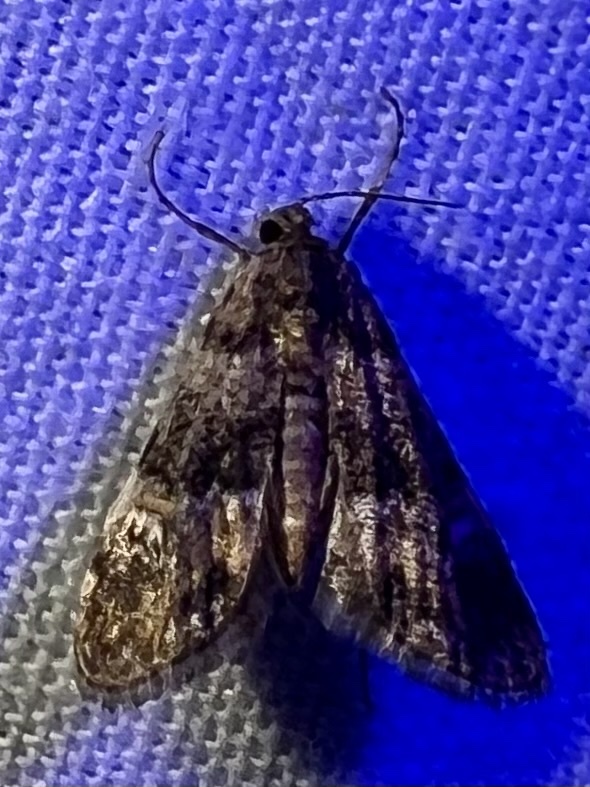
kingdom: Animalia
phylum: Arthropoda
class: Insecta
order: Lepidoptera
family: Crambidae
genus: Elophila
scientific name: Elophila obliteralis
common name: Waterlily leafcutter moth
